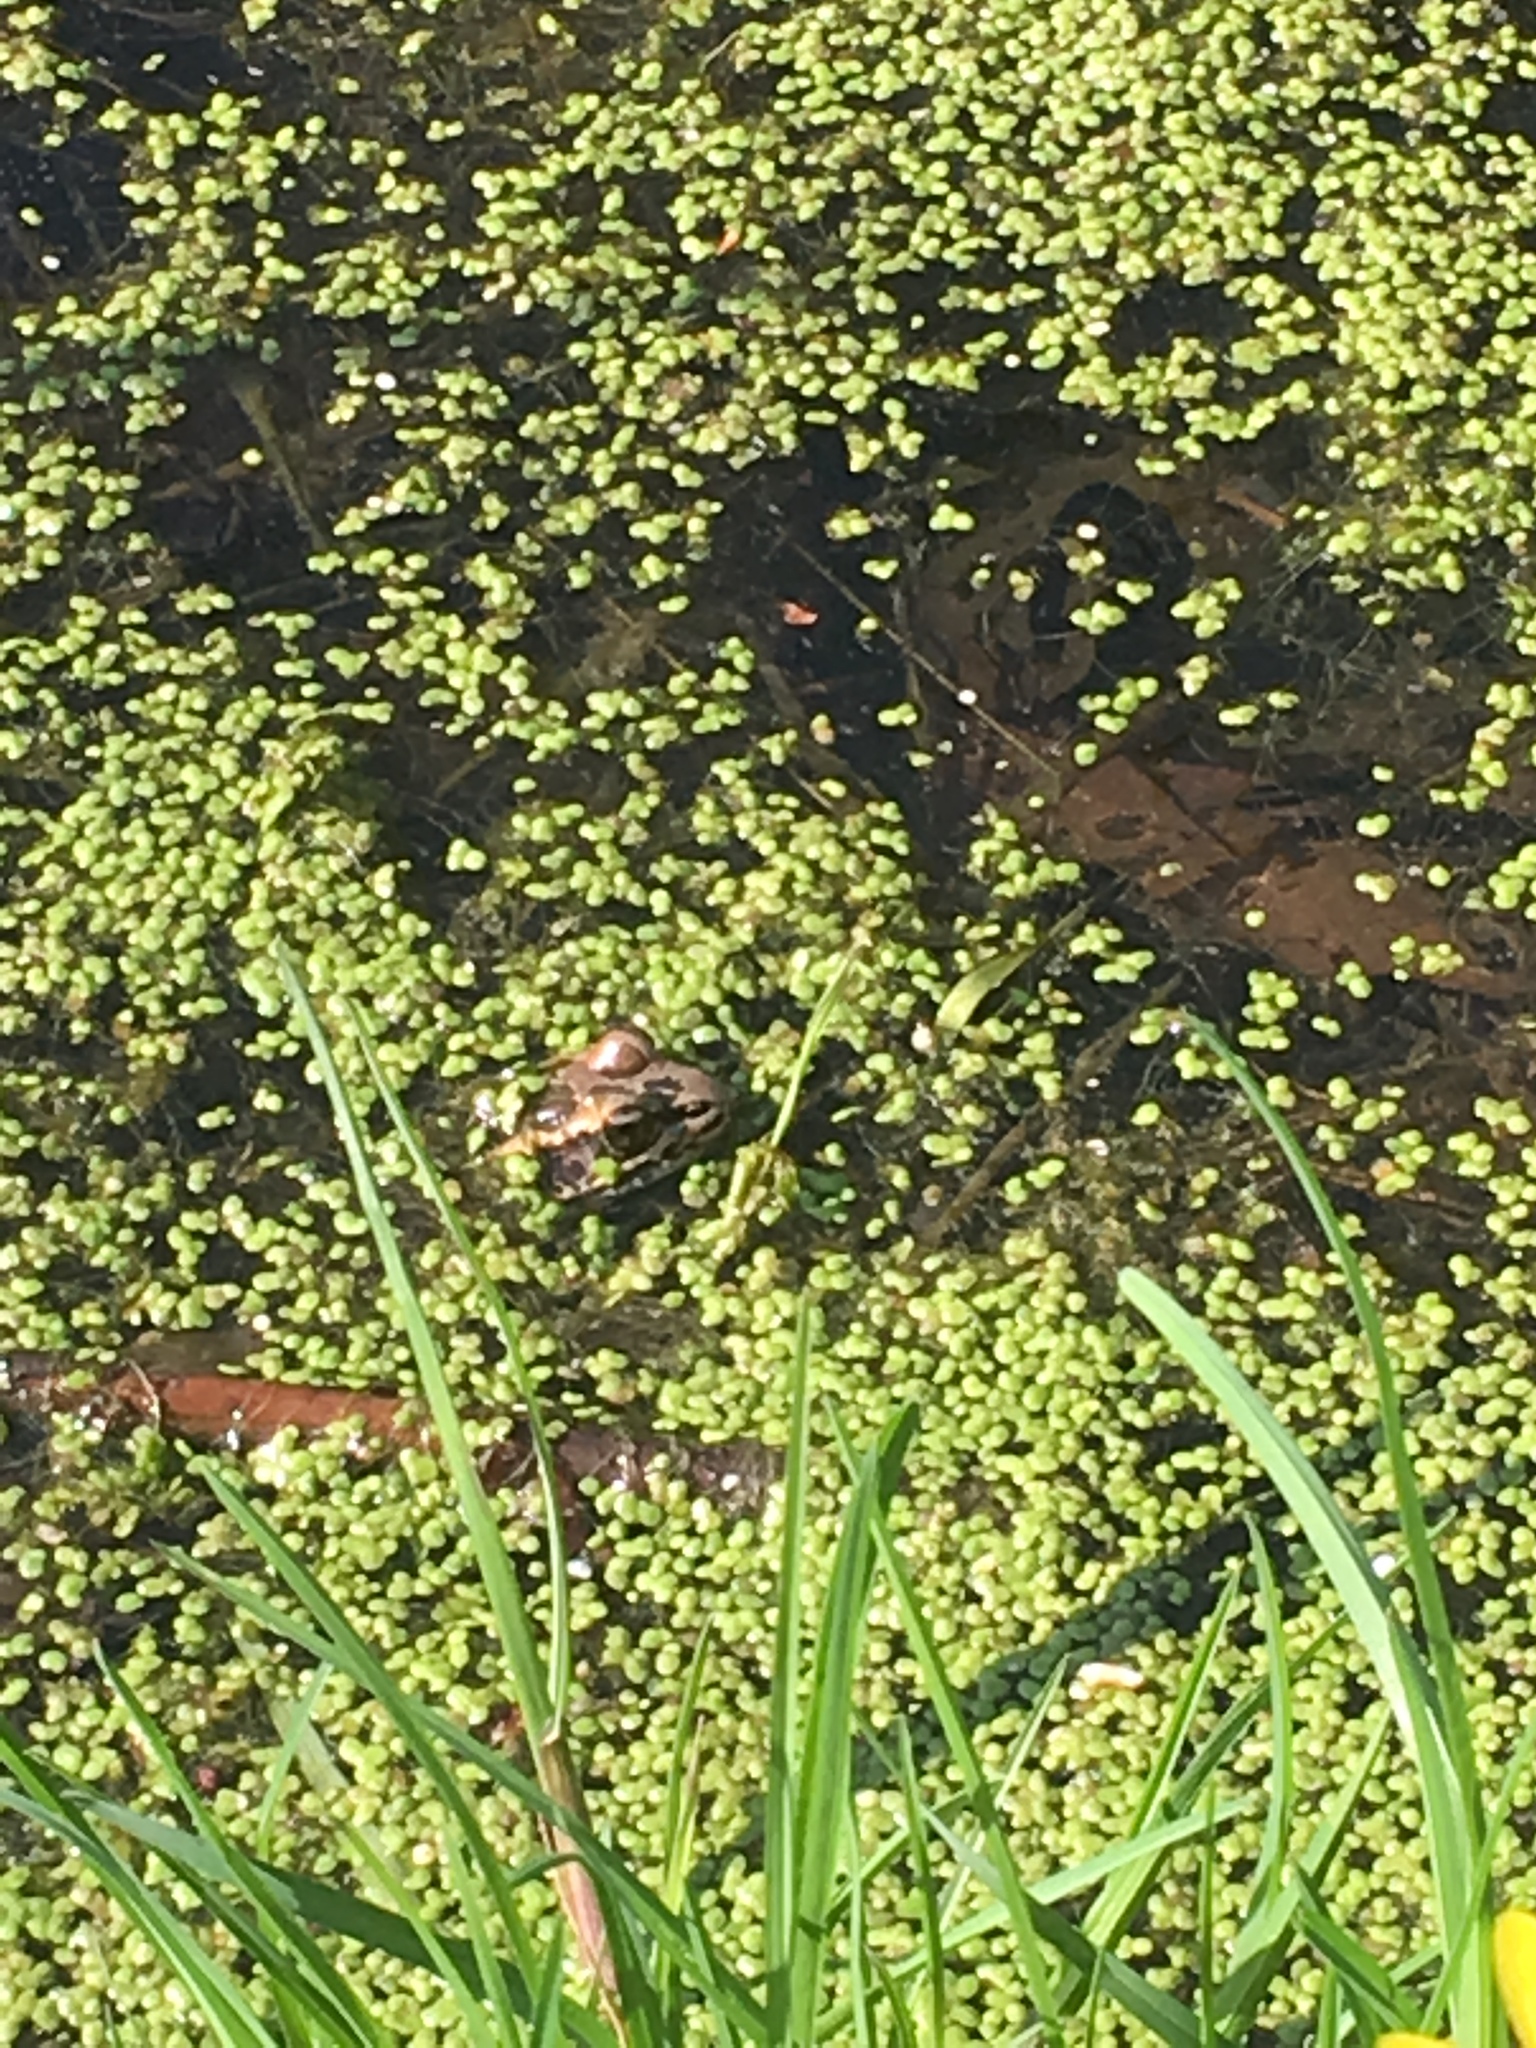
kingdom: Animalia
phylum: Chordata
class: Amphibia
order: Anura
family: Ranidae
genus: Lithobates
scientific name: Lithobates palustris
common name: Pickerel frog
